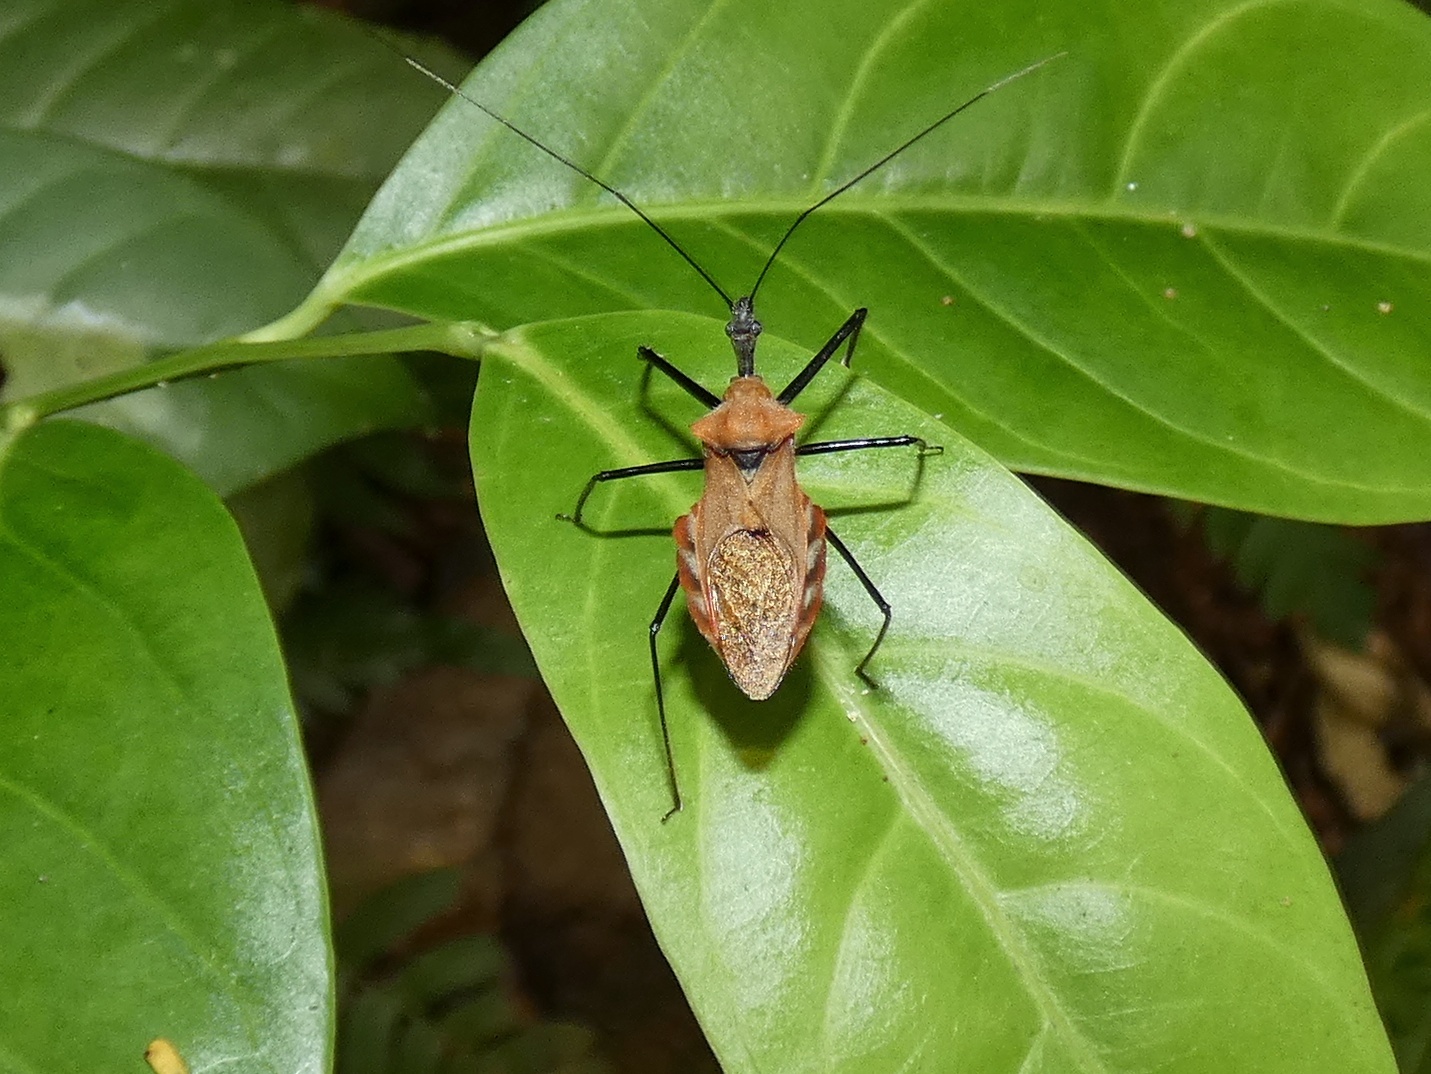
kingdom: Animalia
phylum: Arthropoda
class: Insecta
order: Hemiptera
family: Reduviidae
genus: Montina
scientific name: Montina scutellaris
